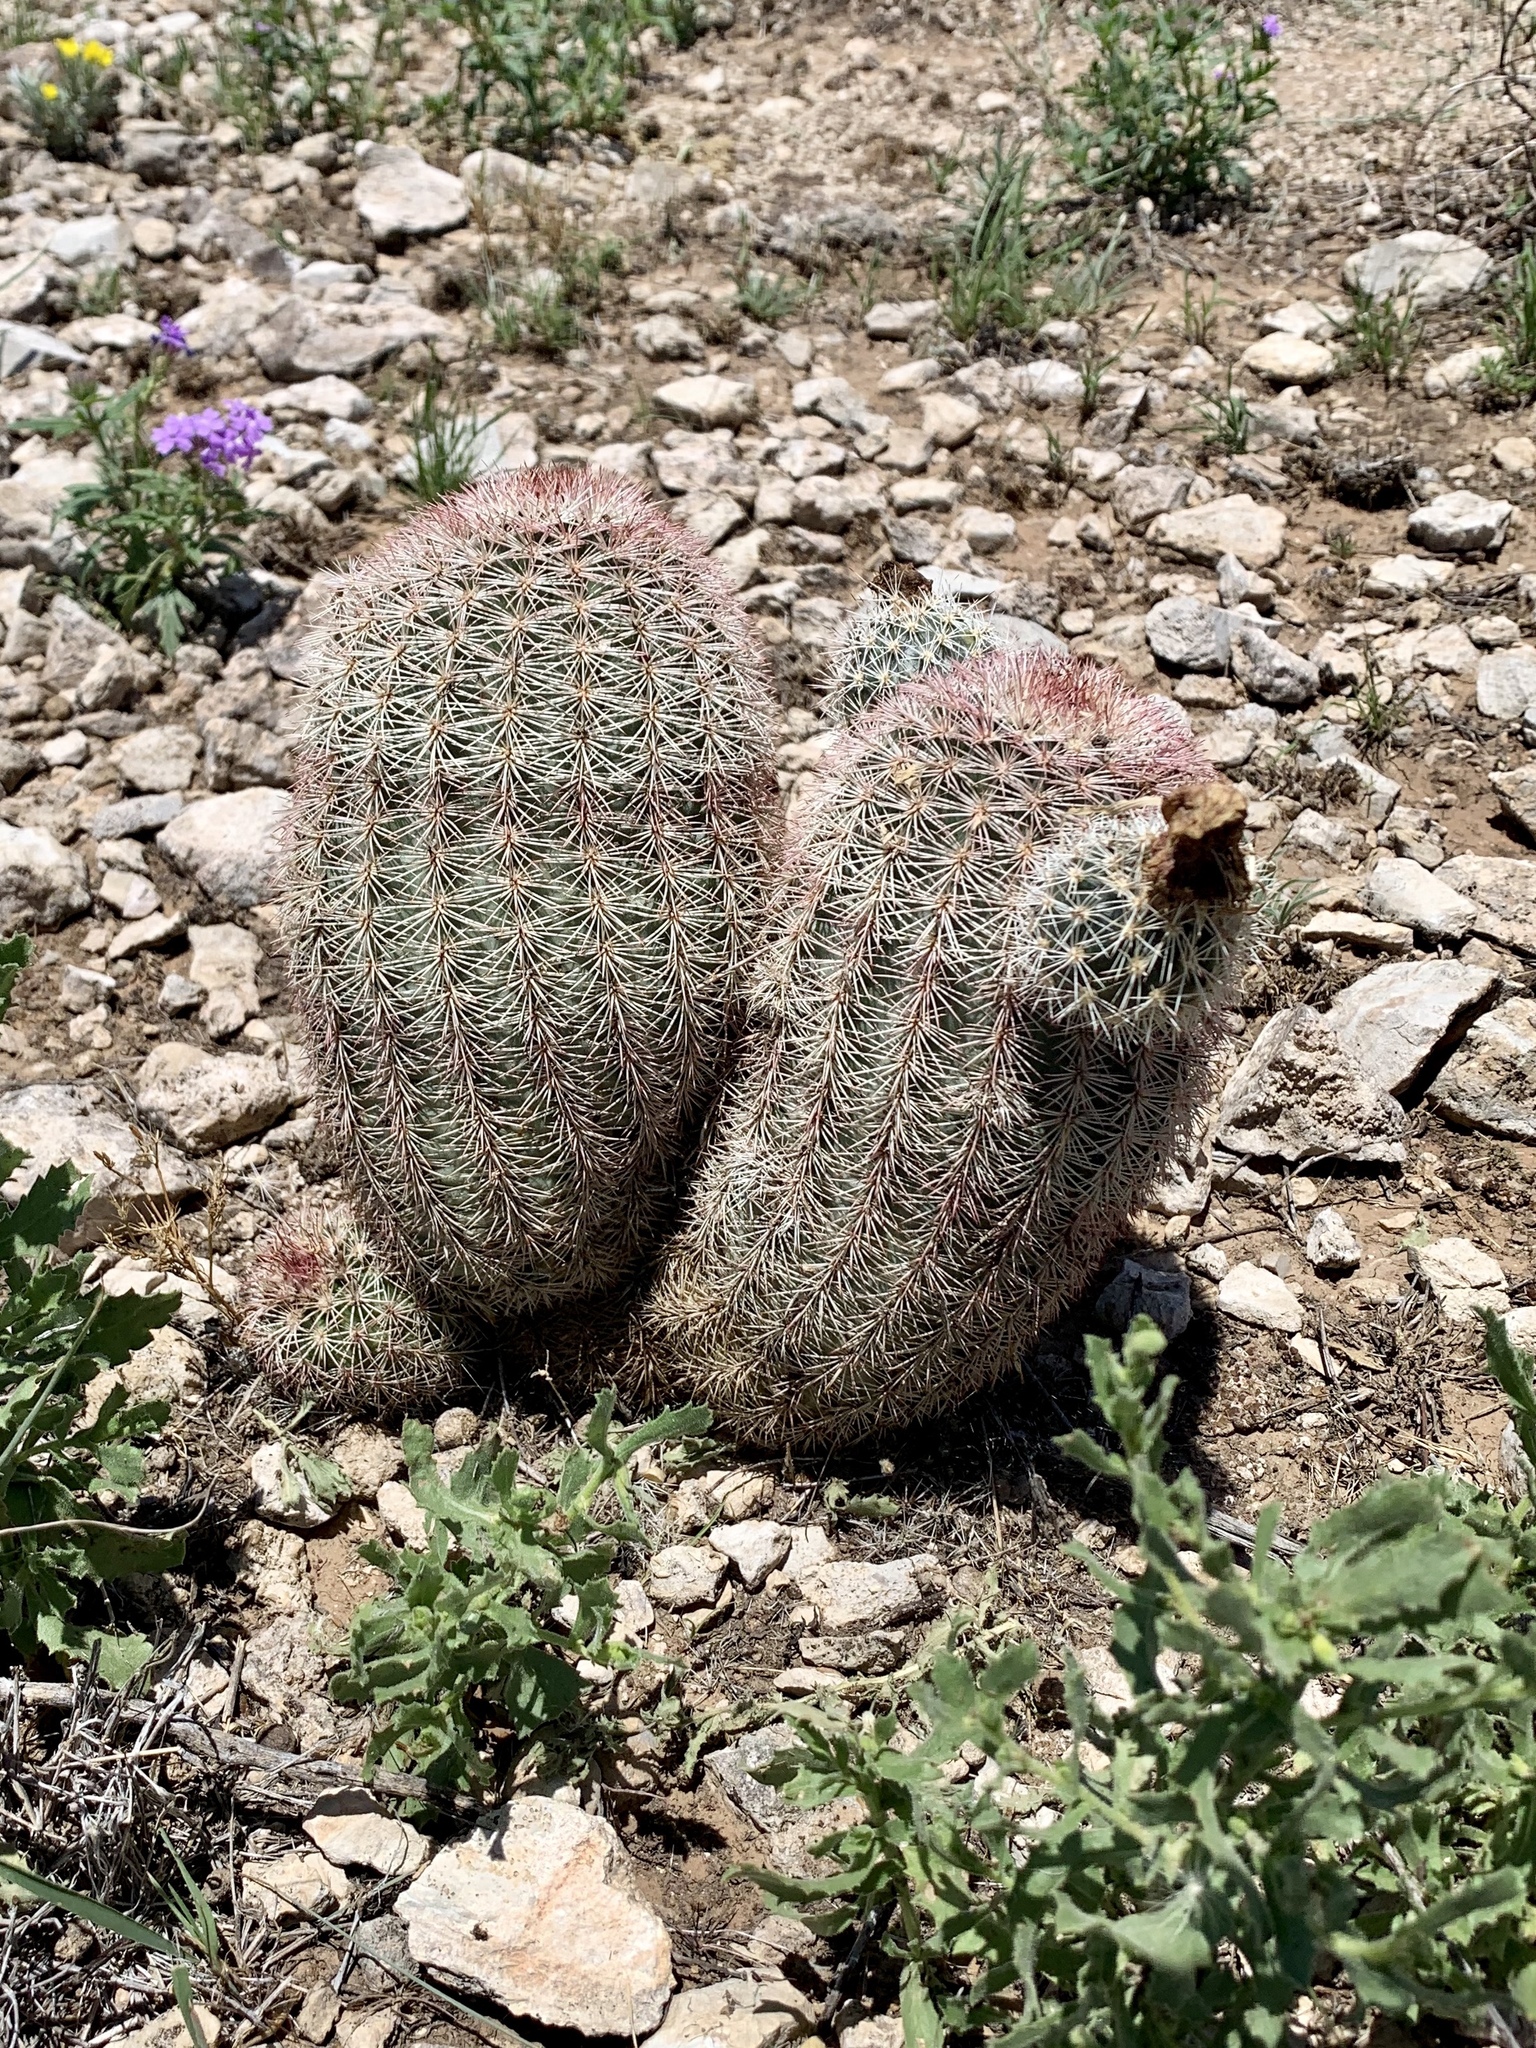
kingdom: Plantae
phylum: Tracheophyta
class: Magnoliopsida
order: Caryophyllales
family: Cactaceae
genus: Echinocereus
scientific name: Echinocereus dasyacanthus
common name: Spiny hedgehog cactus
